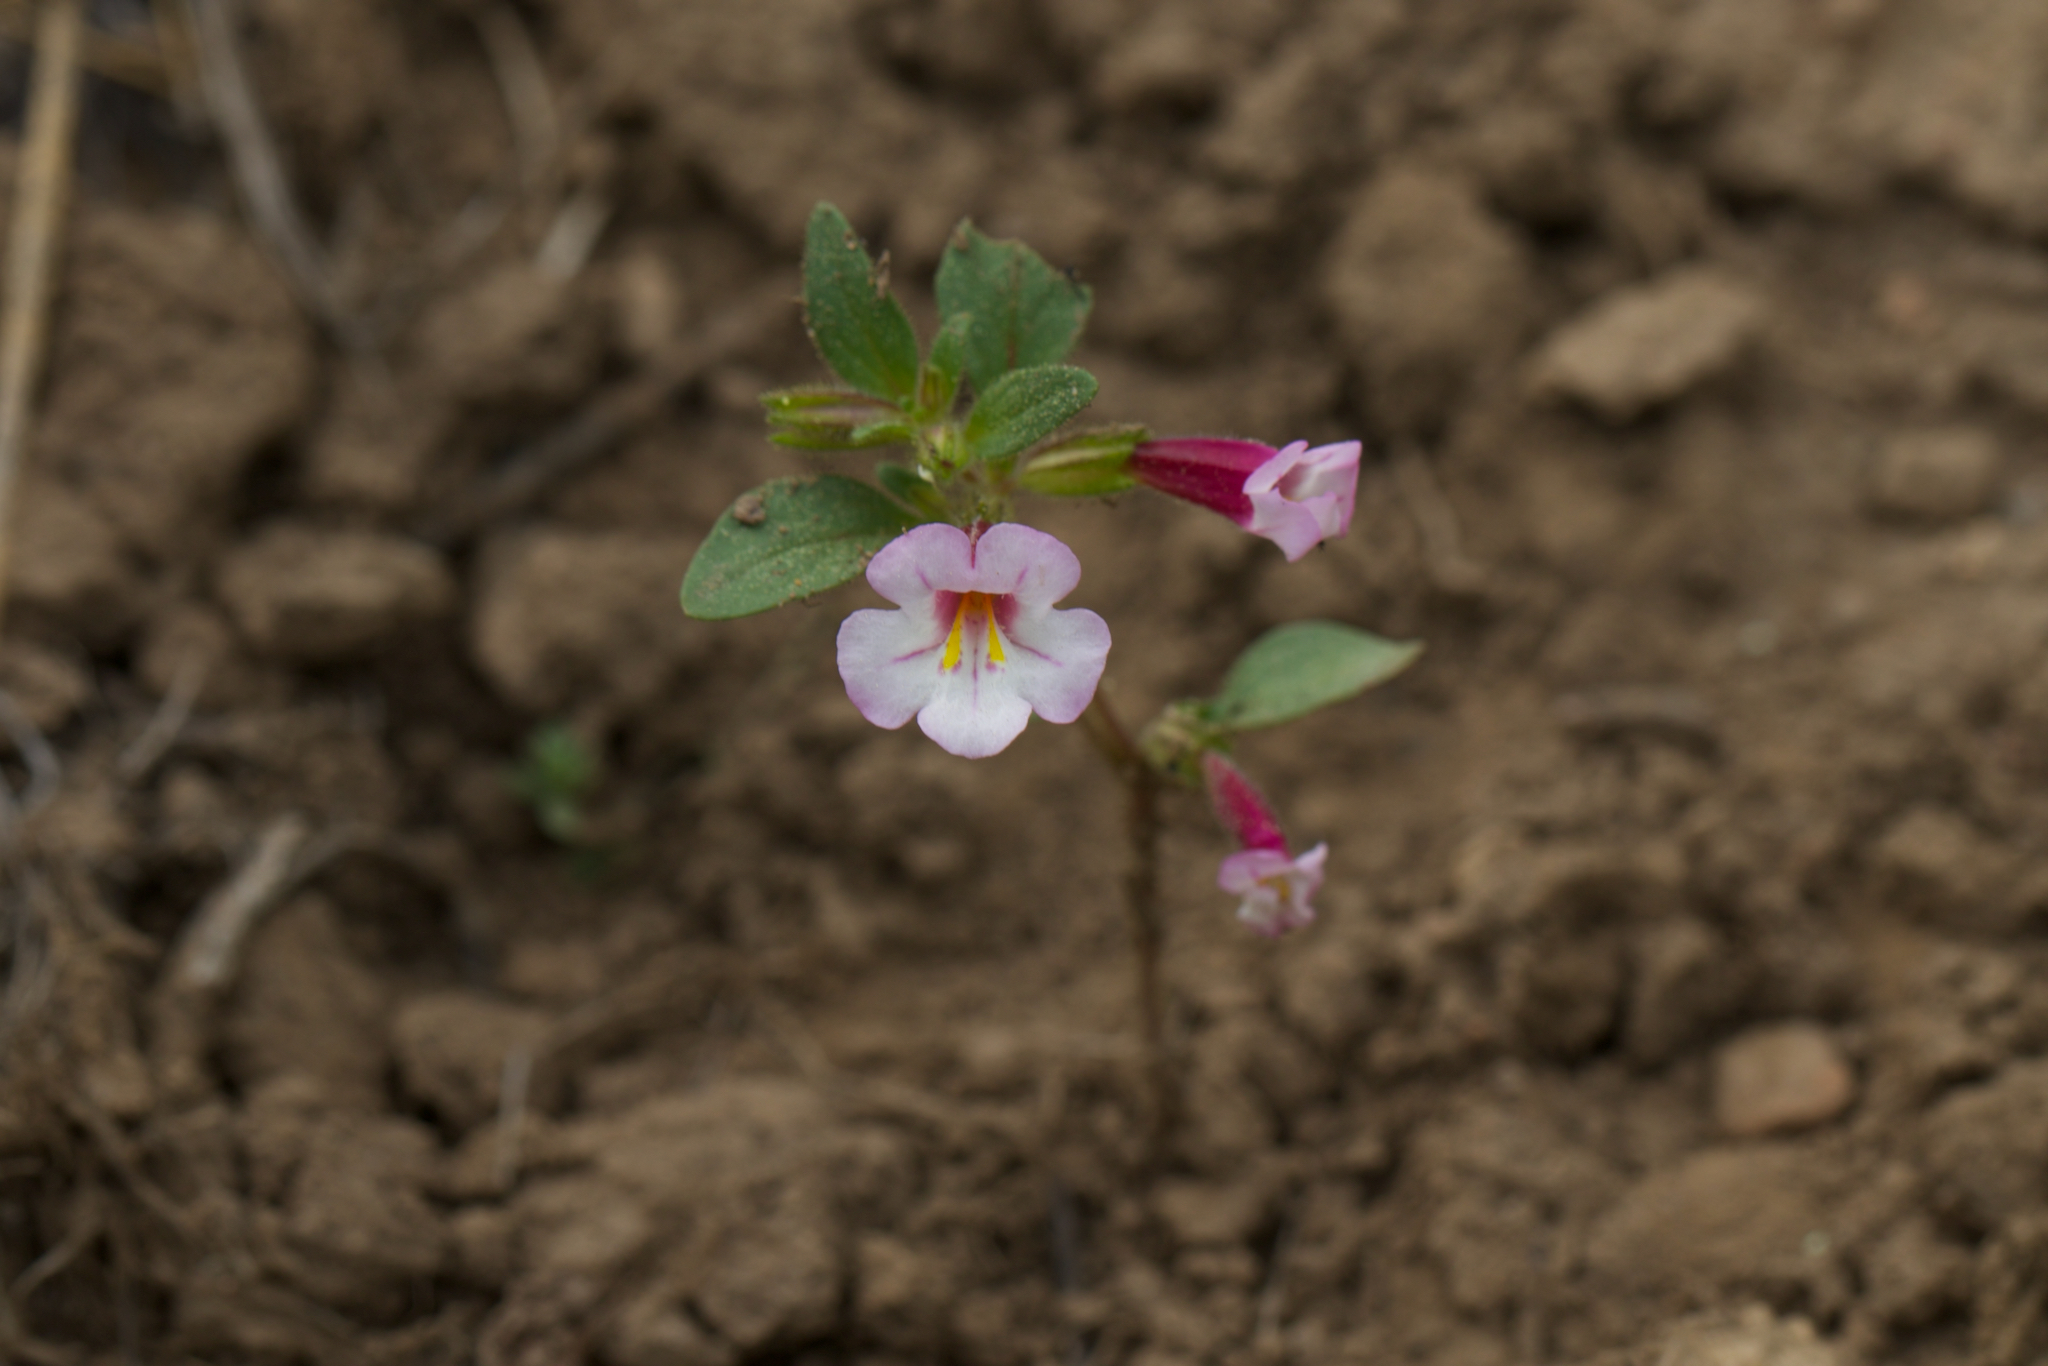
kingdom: Plantae
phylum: Tracheophyta
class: Magnoliopsida
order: Lamiales
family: Phrymaceae
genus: Diplacus
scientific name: Diplacus torreyi
